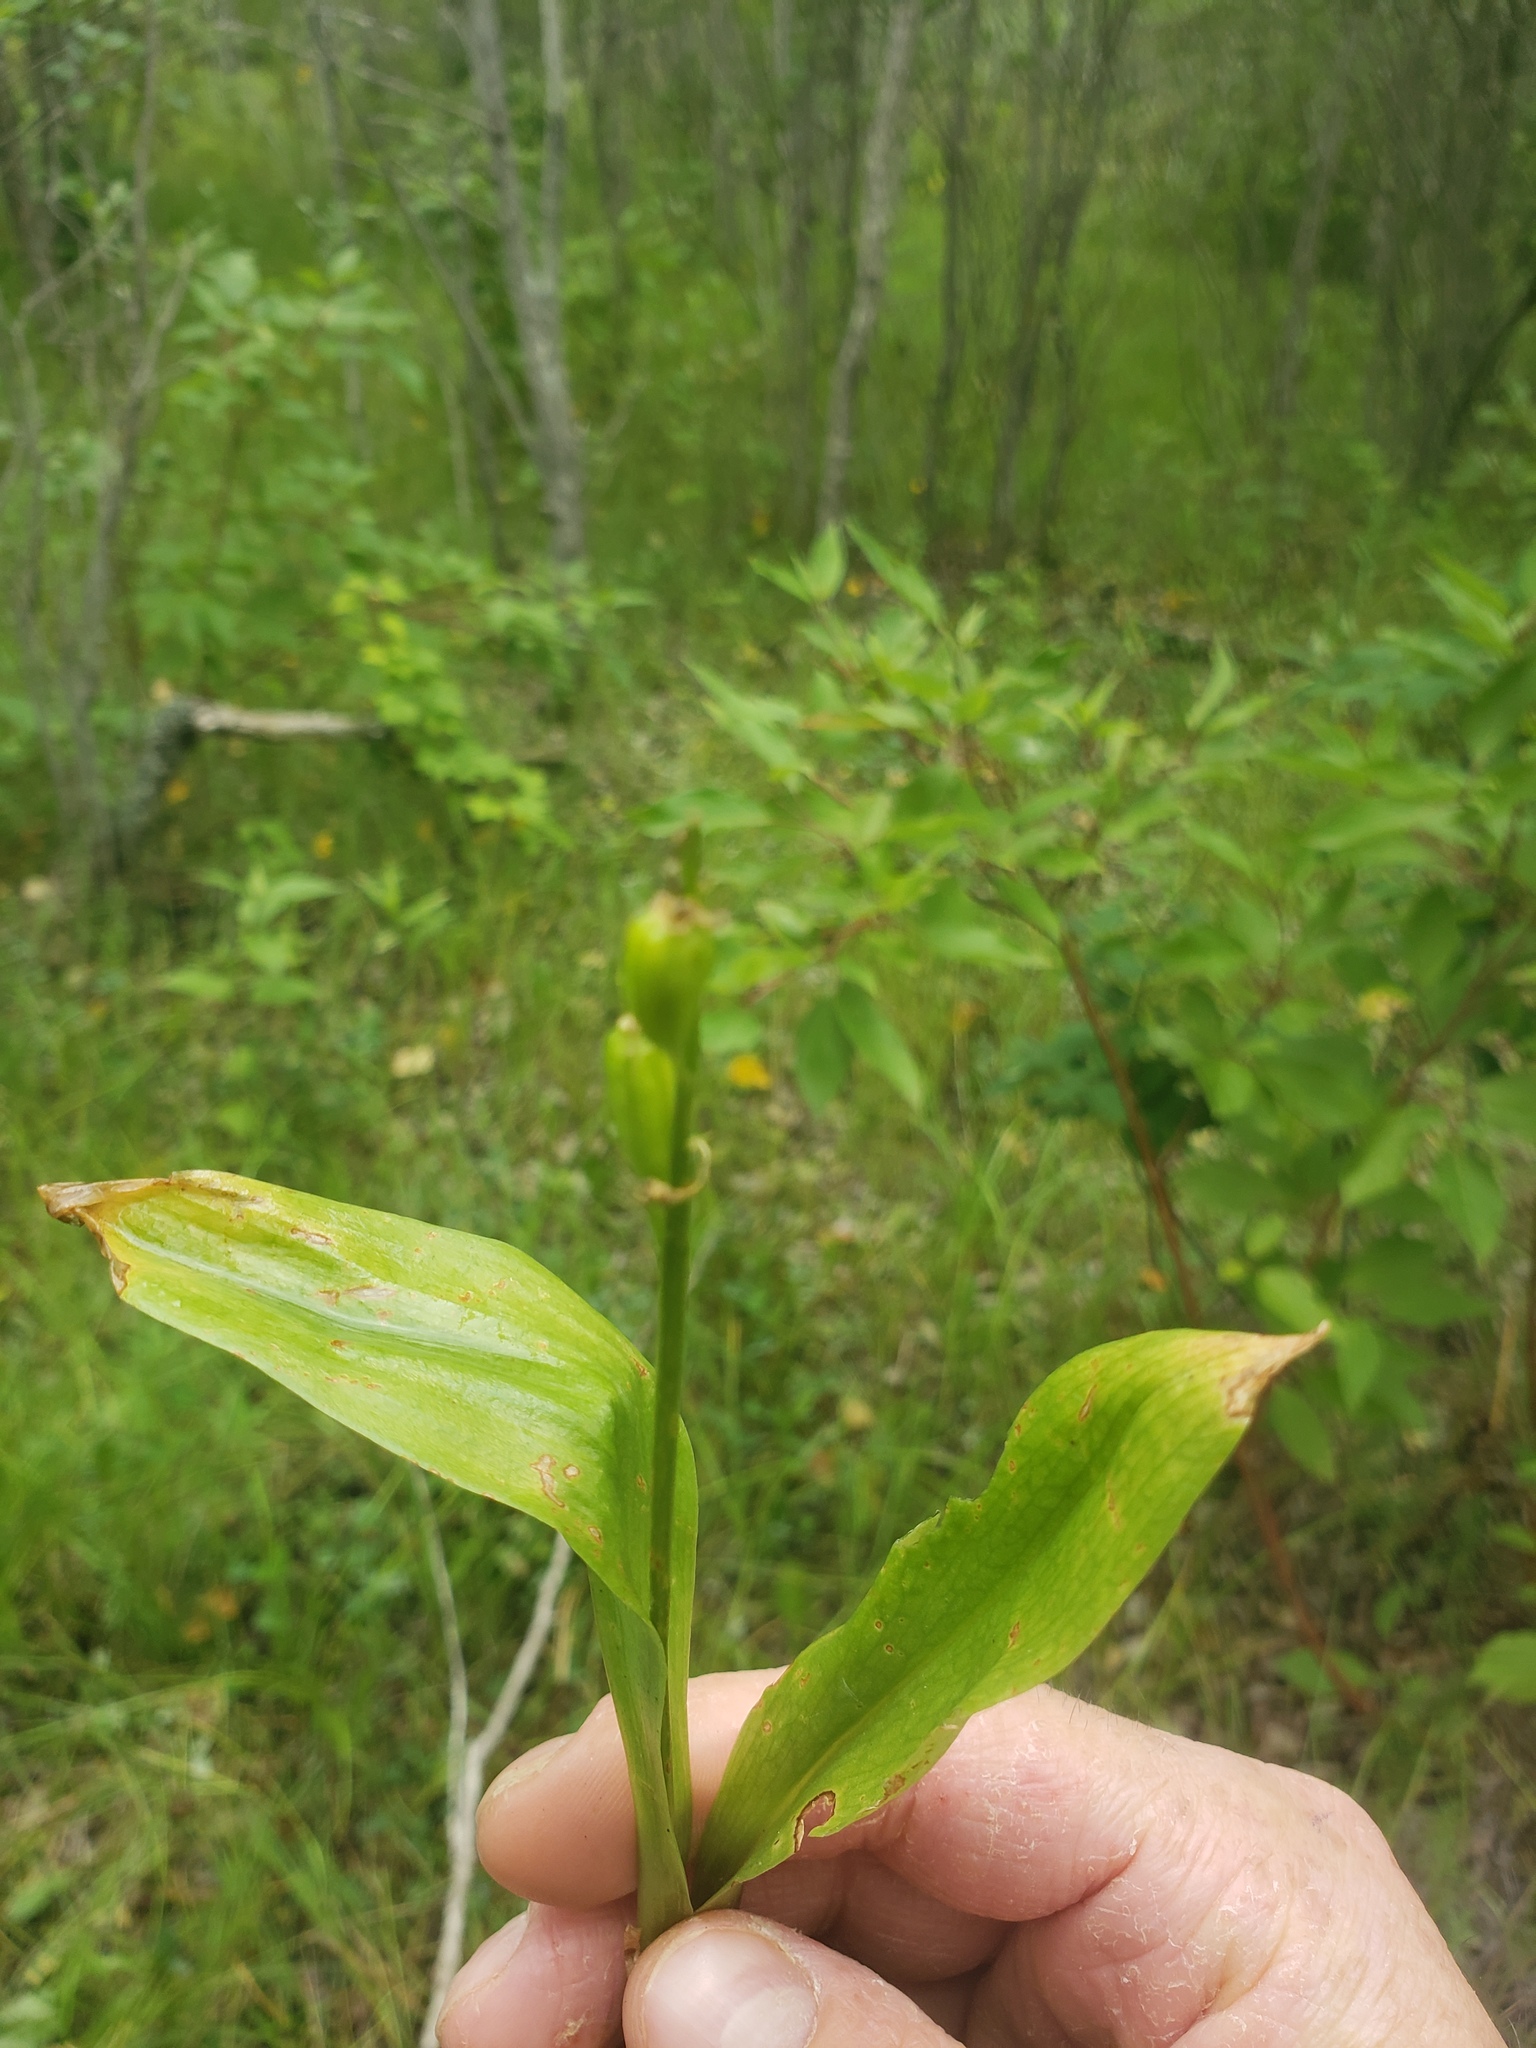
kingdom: Animalia
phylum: Arthropoda
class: Insecta
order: Coleoptera
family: Curculionidae
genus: Liparis
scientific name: Liparis loeselii
